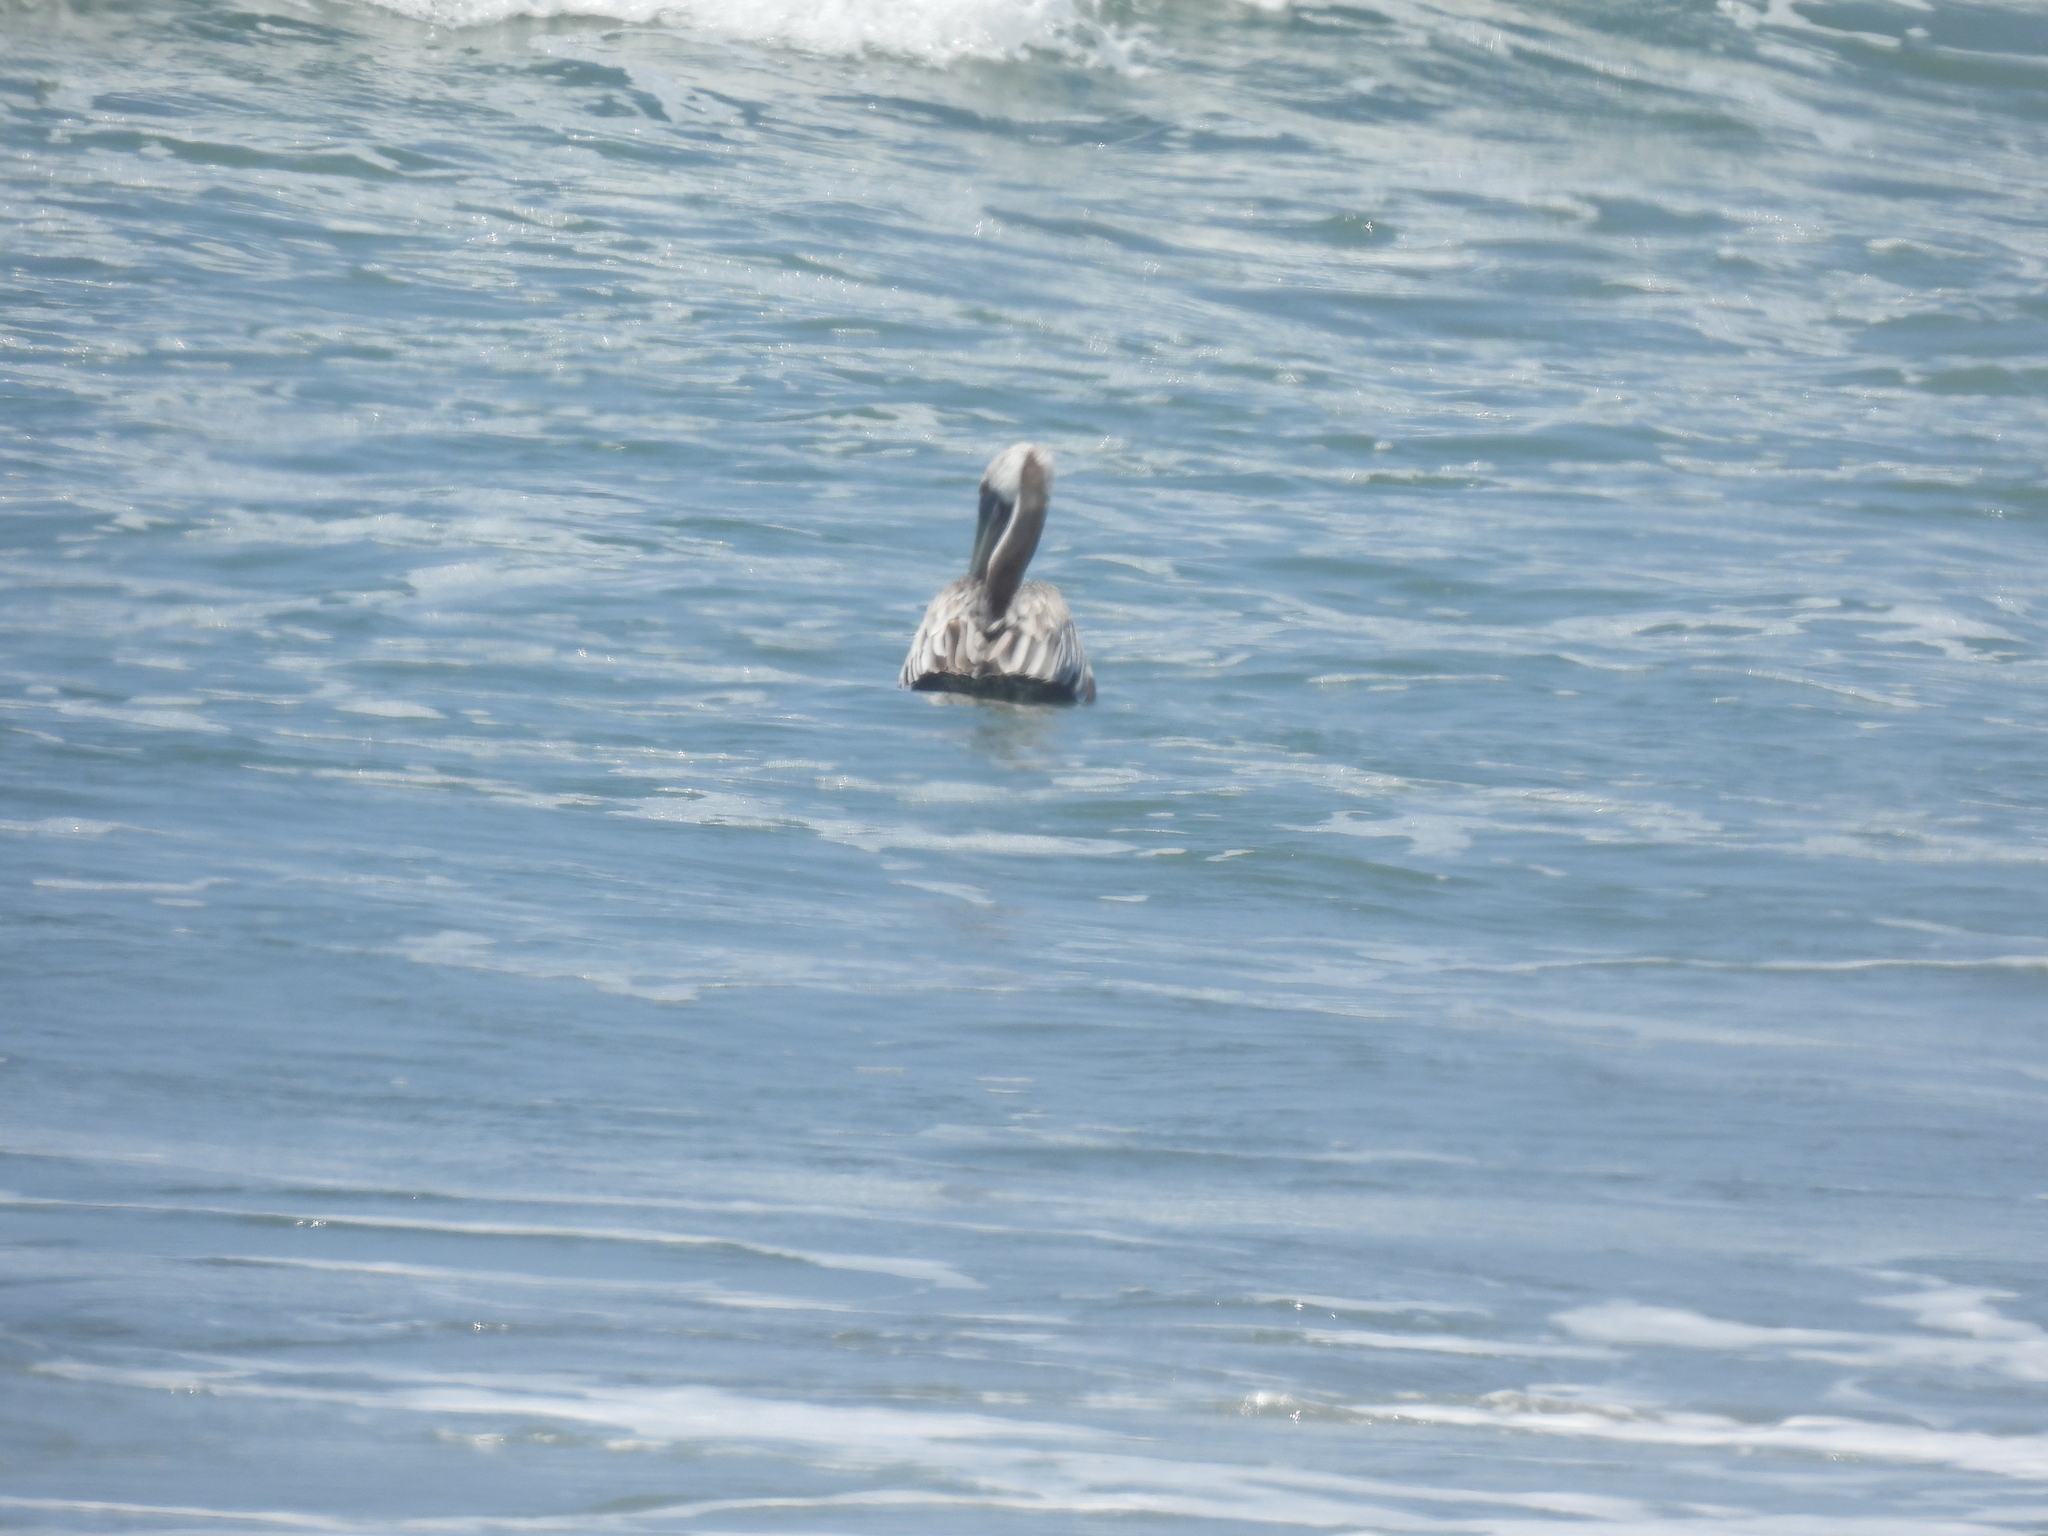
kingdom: Animalia
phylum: Chordata
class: Aves
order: Pelecaniformes
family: Pelecanidae
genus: Pelecanus
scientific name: Pelecanus occidentalis
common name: Brown pelican
